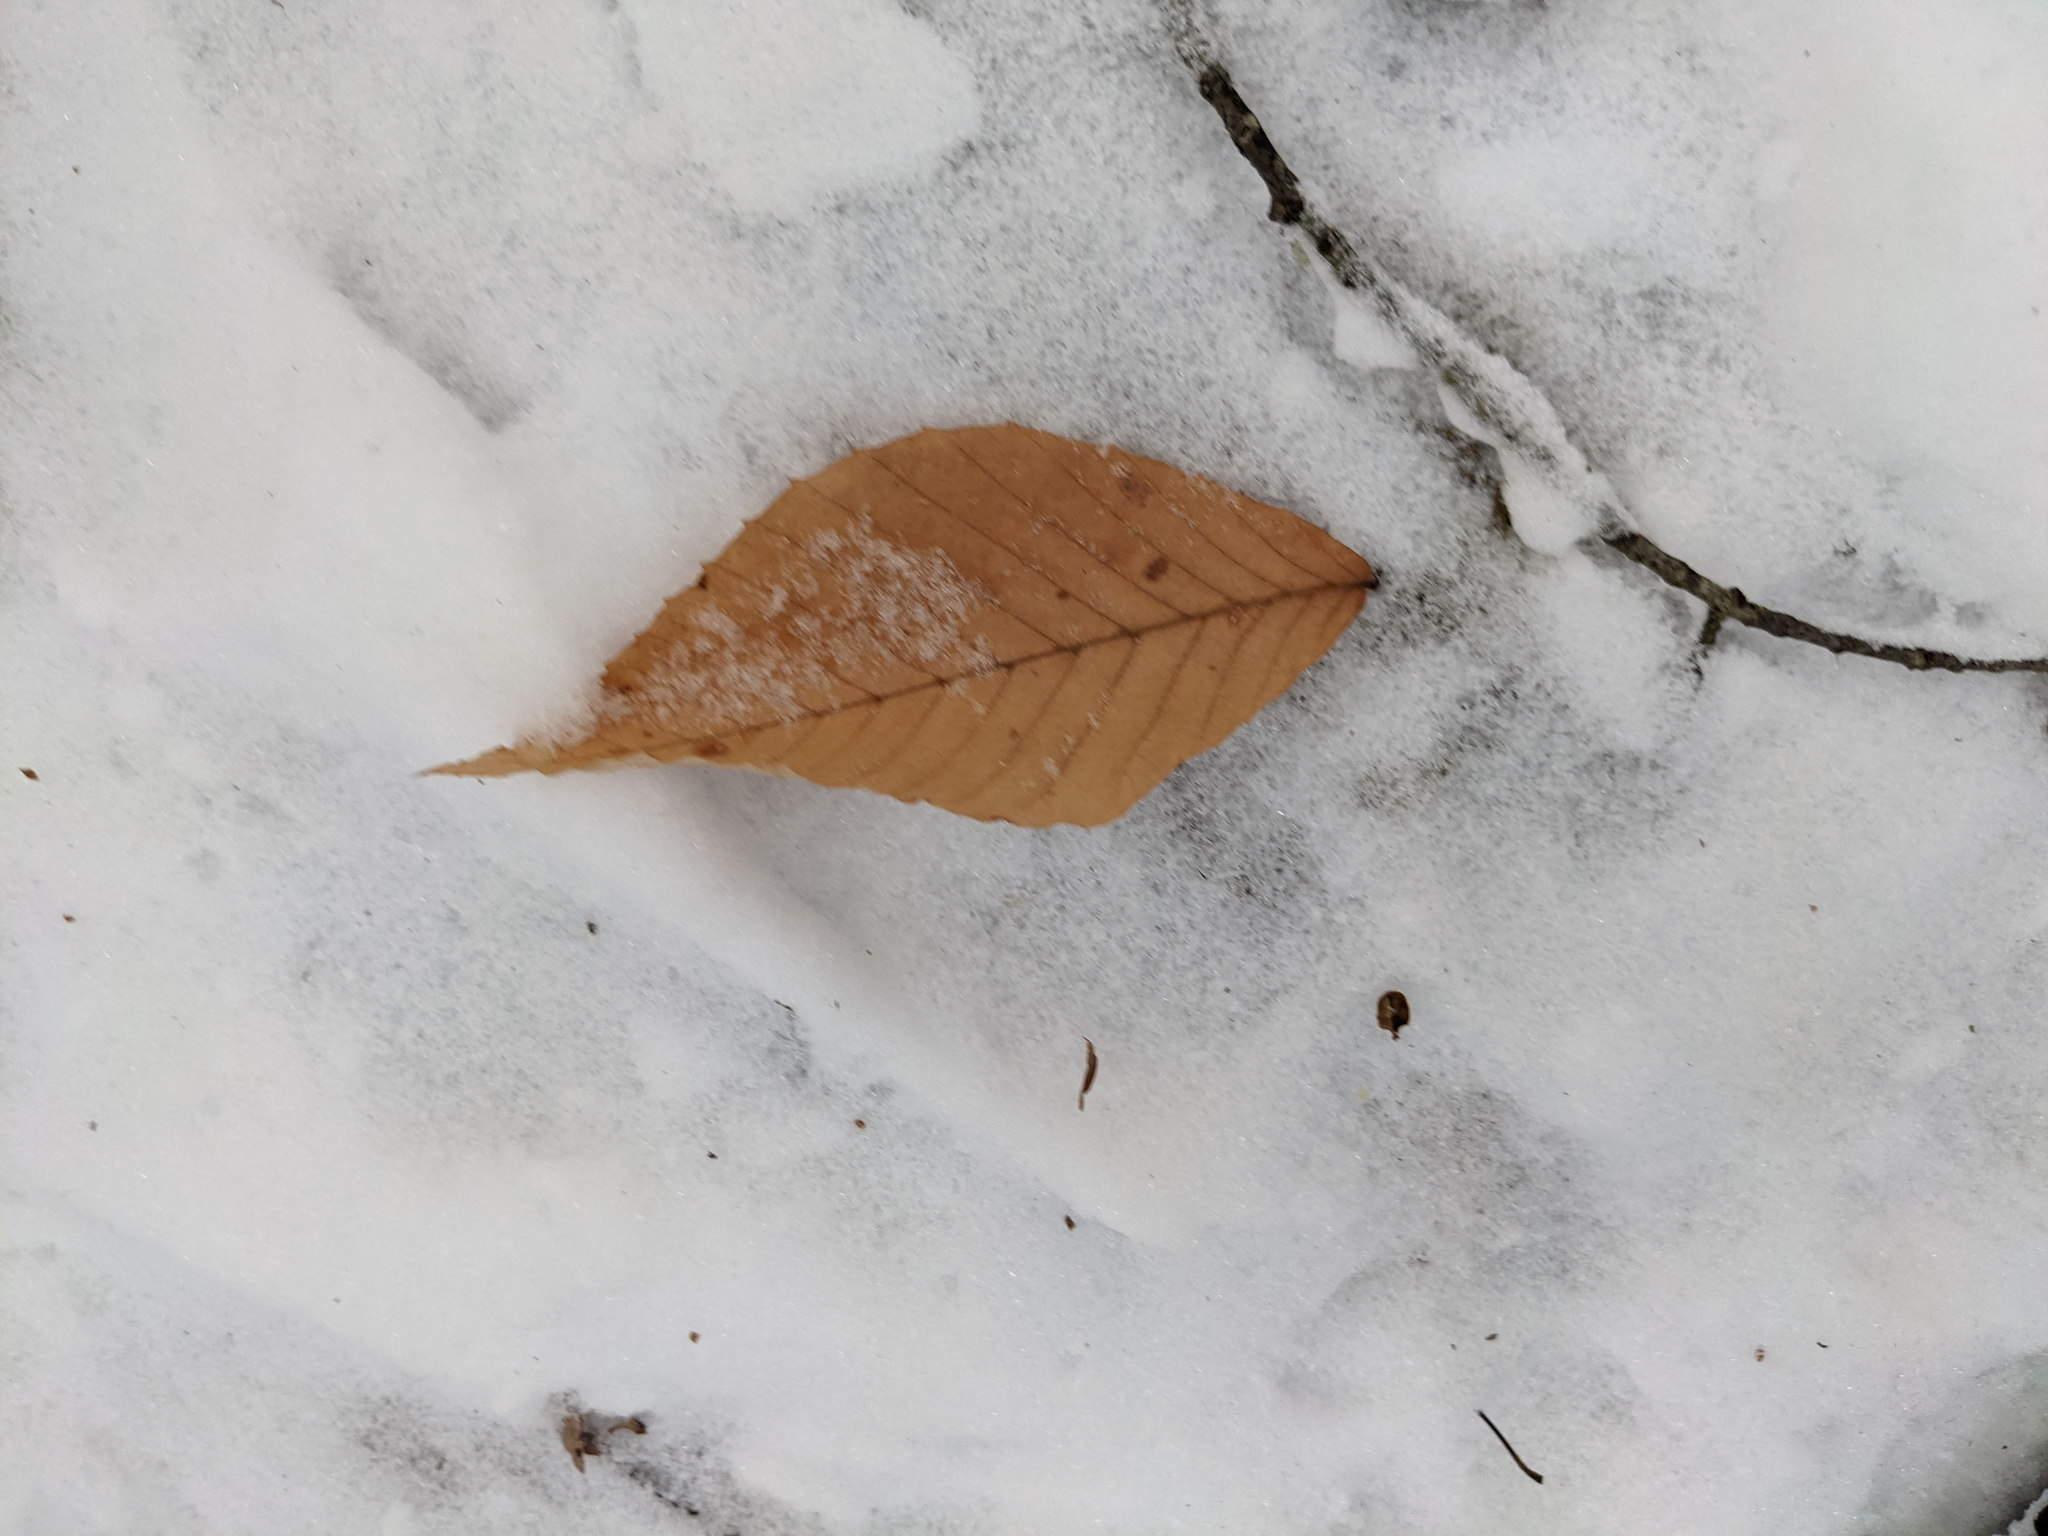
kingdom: Plantae
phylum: Tracheophyta
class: Magnoliopsida
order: Fagales
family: Fagaceae
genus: Fagus
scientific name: Fagus grandifolia
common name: American beech
